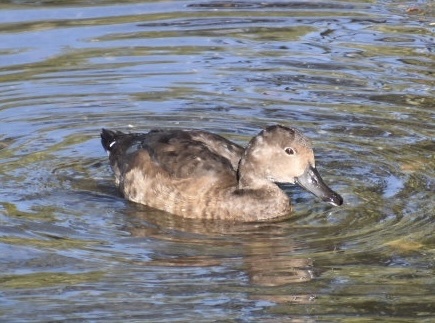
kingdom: Animalia
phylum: Chordata
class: Aves
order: Anseriformes
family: Anatidae
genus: Aythya
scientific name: Aythya americana
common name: Redhead
